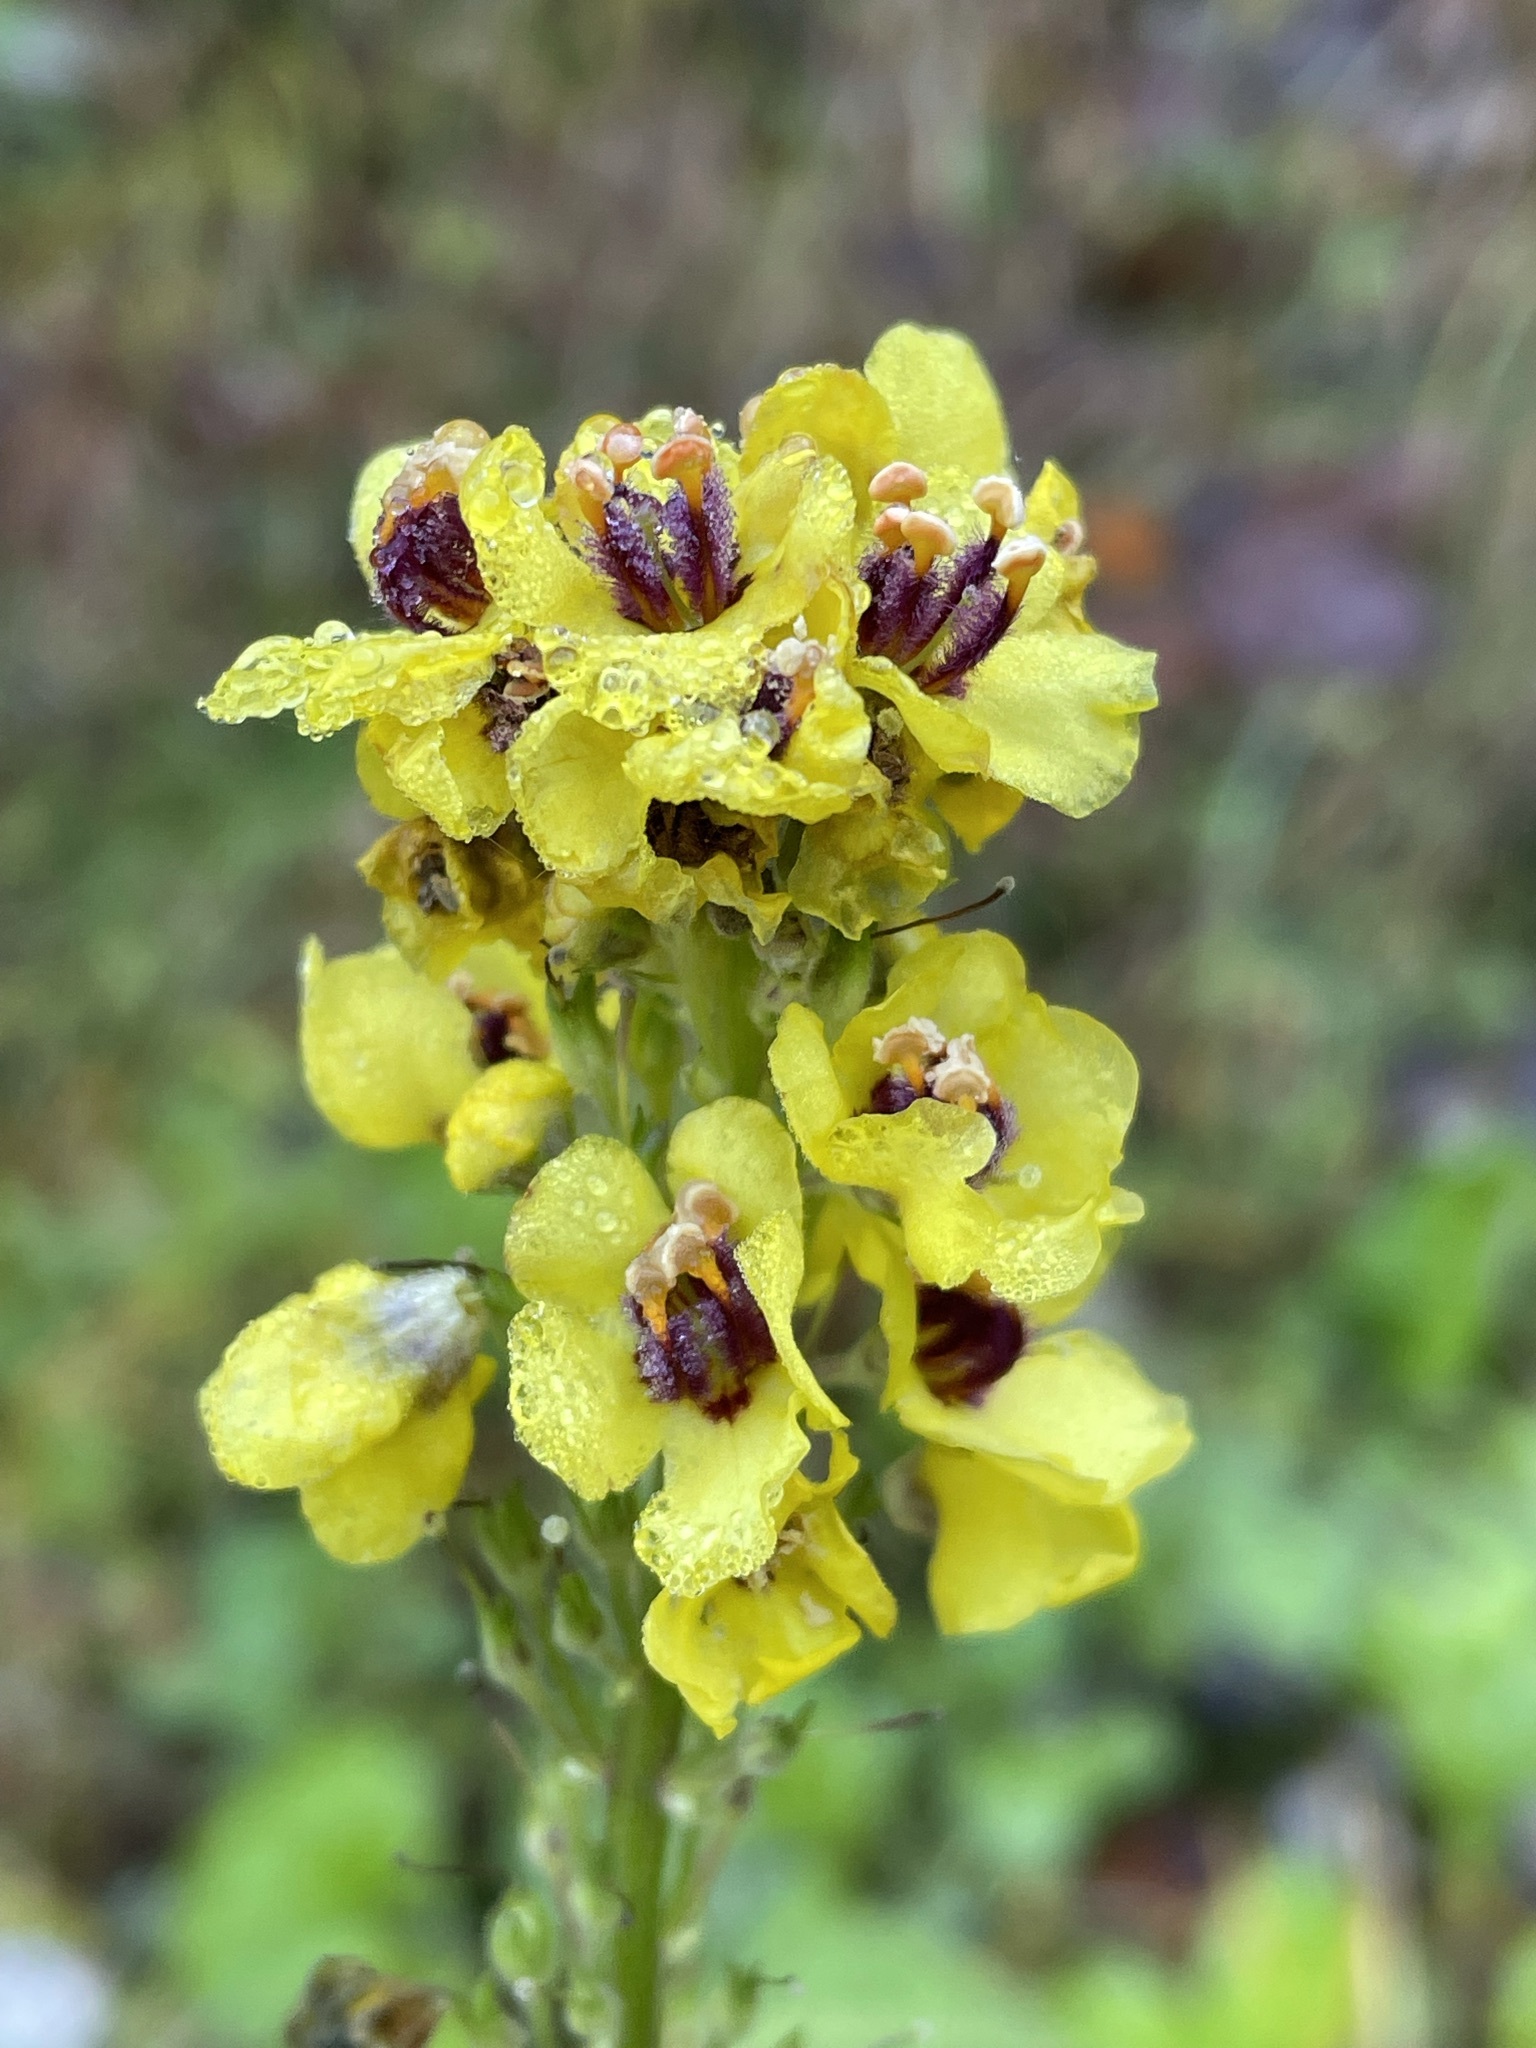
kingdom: Plantae
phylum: Tracheophyta
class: Magnoliopsida
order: Lamiales
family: Scrophulariaceae
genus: Verbascum
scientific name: Verbascum nigrum
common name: Dark mullein
